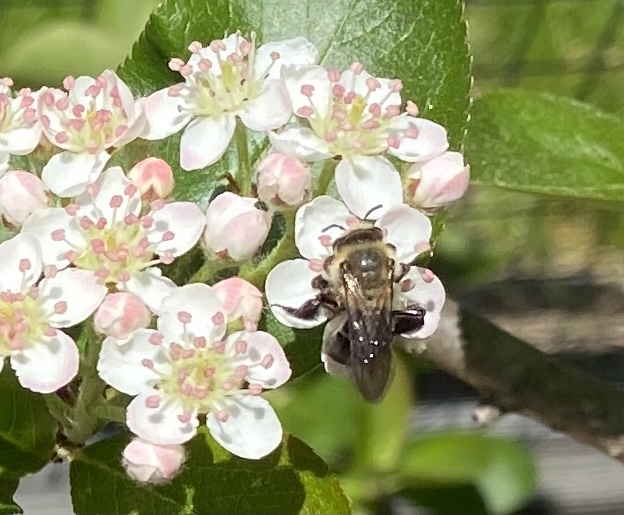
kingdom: Animalia
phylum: Arthropoda
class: Insecta
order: Hymenoptera
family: Andrenidae
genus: Andrena
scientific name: Andrena vicina
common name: Neighborly mining bee
